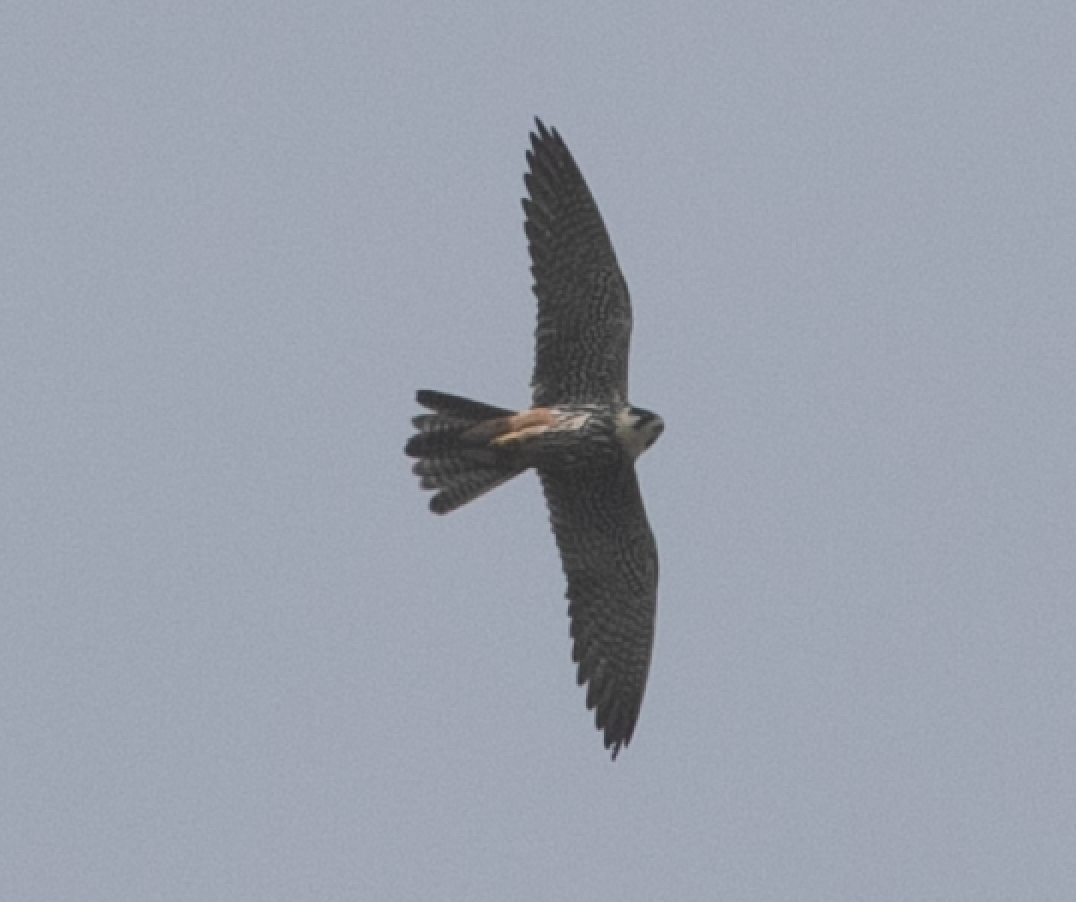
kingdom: Animalia
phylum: Chordata
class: Aves
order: Falconiformes
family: Falconidae
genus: Falco
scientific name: Falco subbuteo
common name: Eurasian hobby
